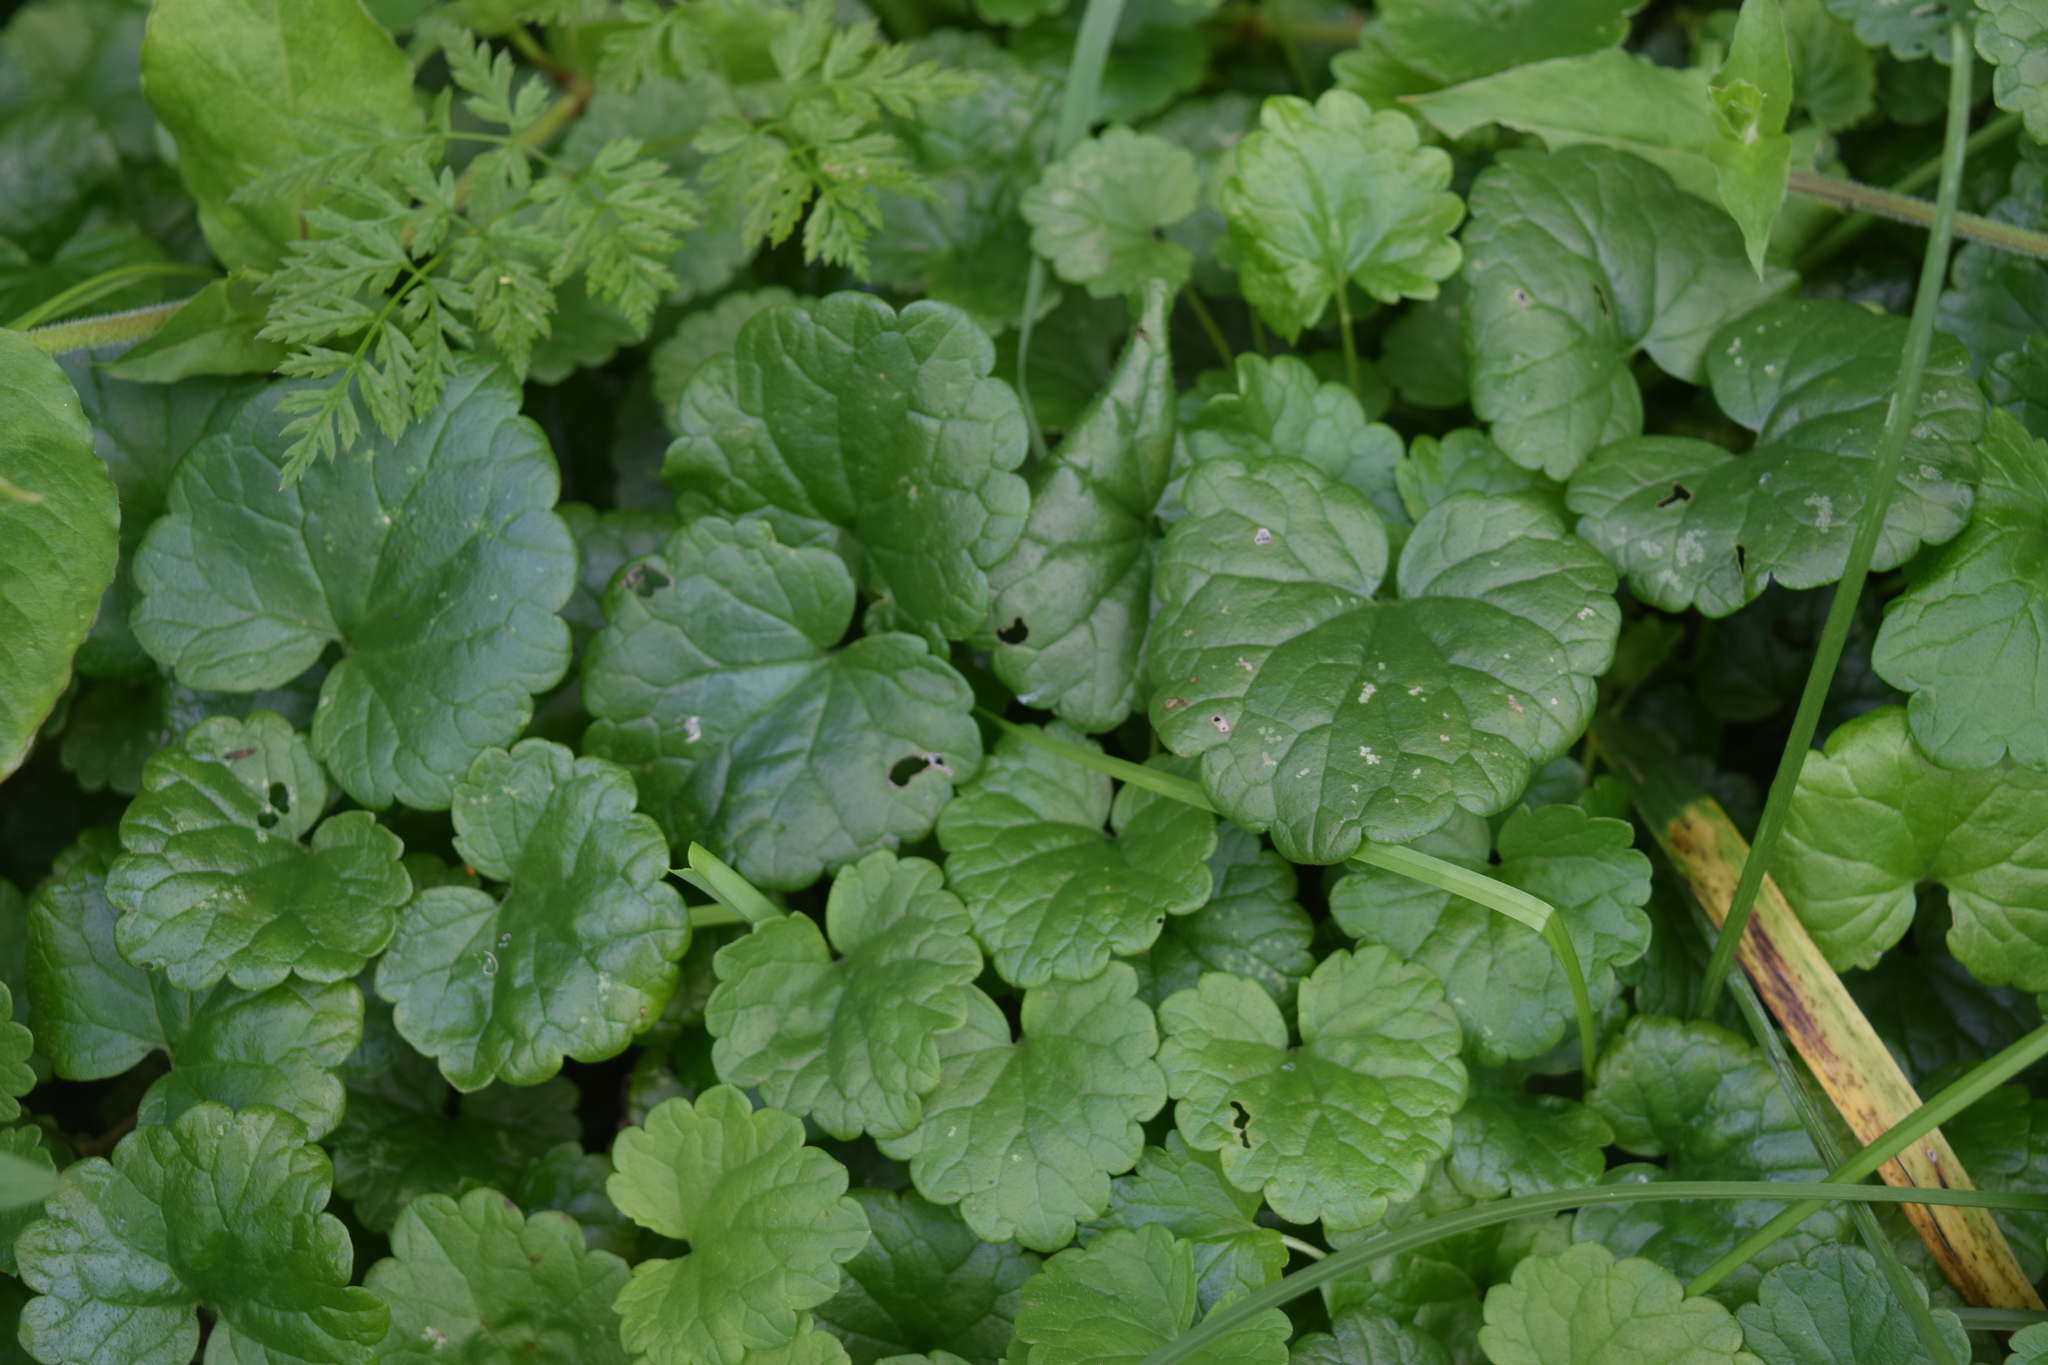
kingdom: Plantae
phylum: Tracheophyta
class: Magnoliopsida
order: Lamiales
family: Lamiaceae
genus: Glechoma
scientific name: Glechoma hederacea
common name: Ground ivy
